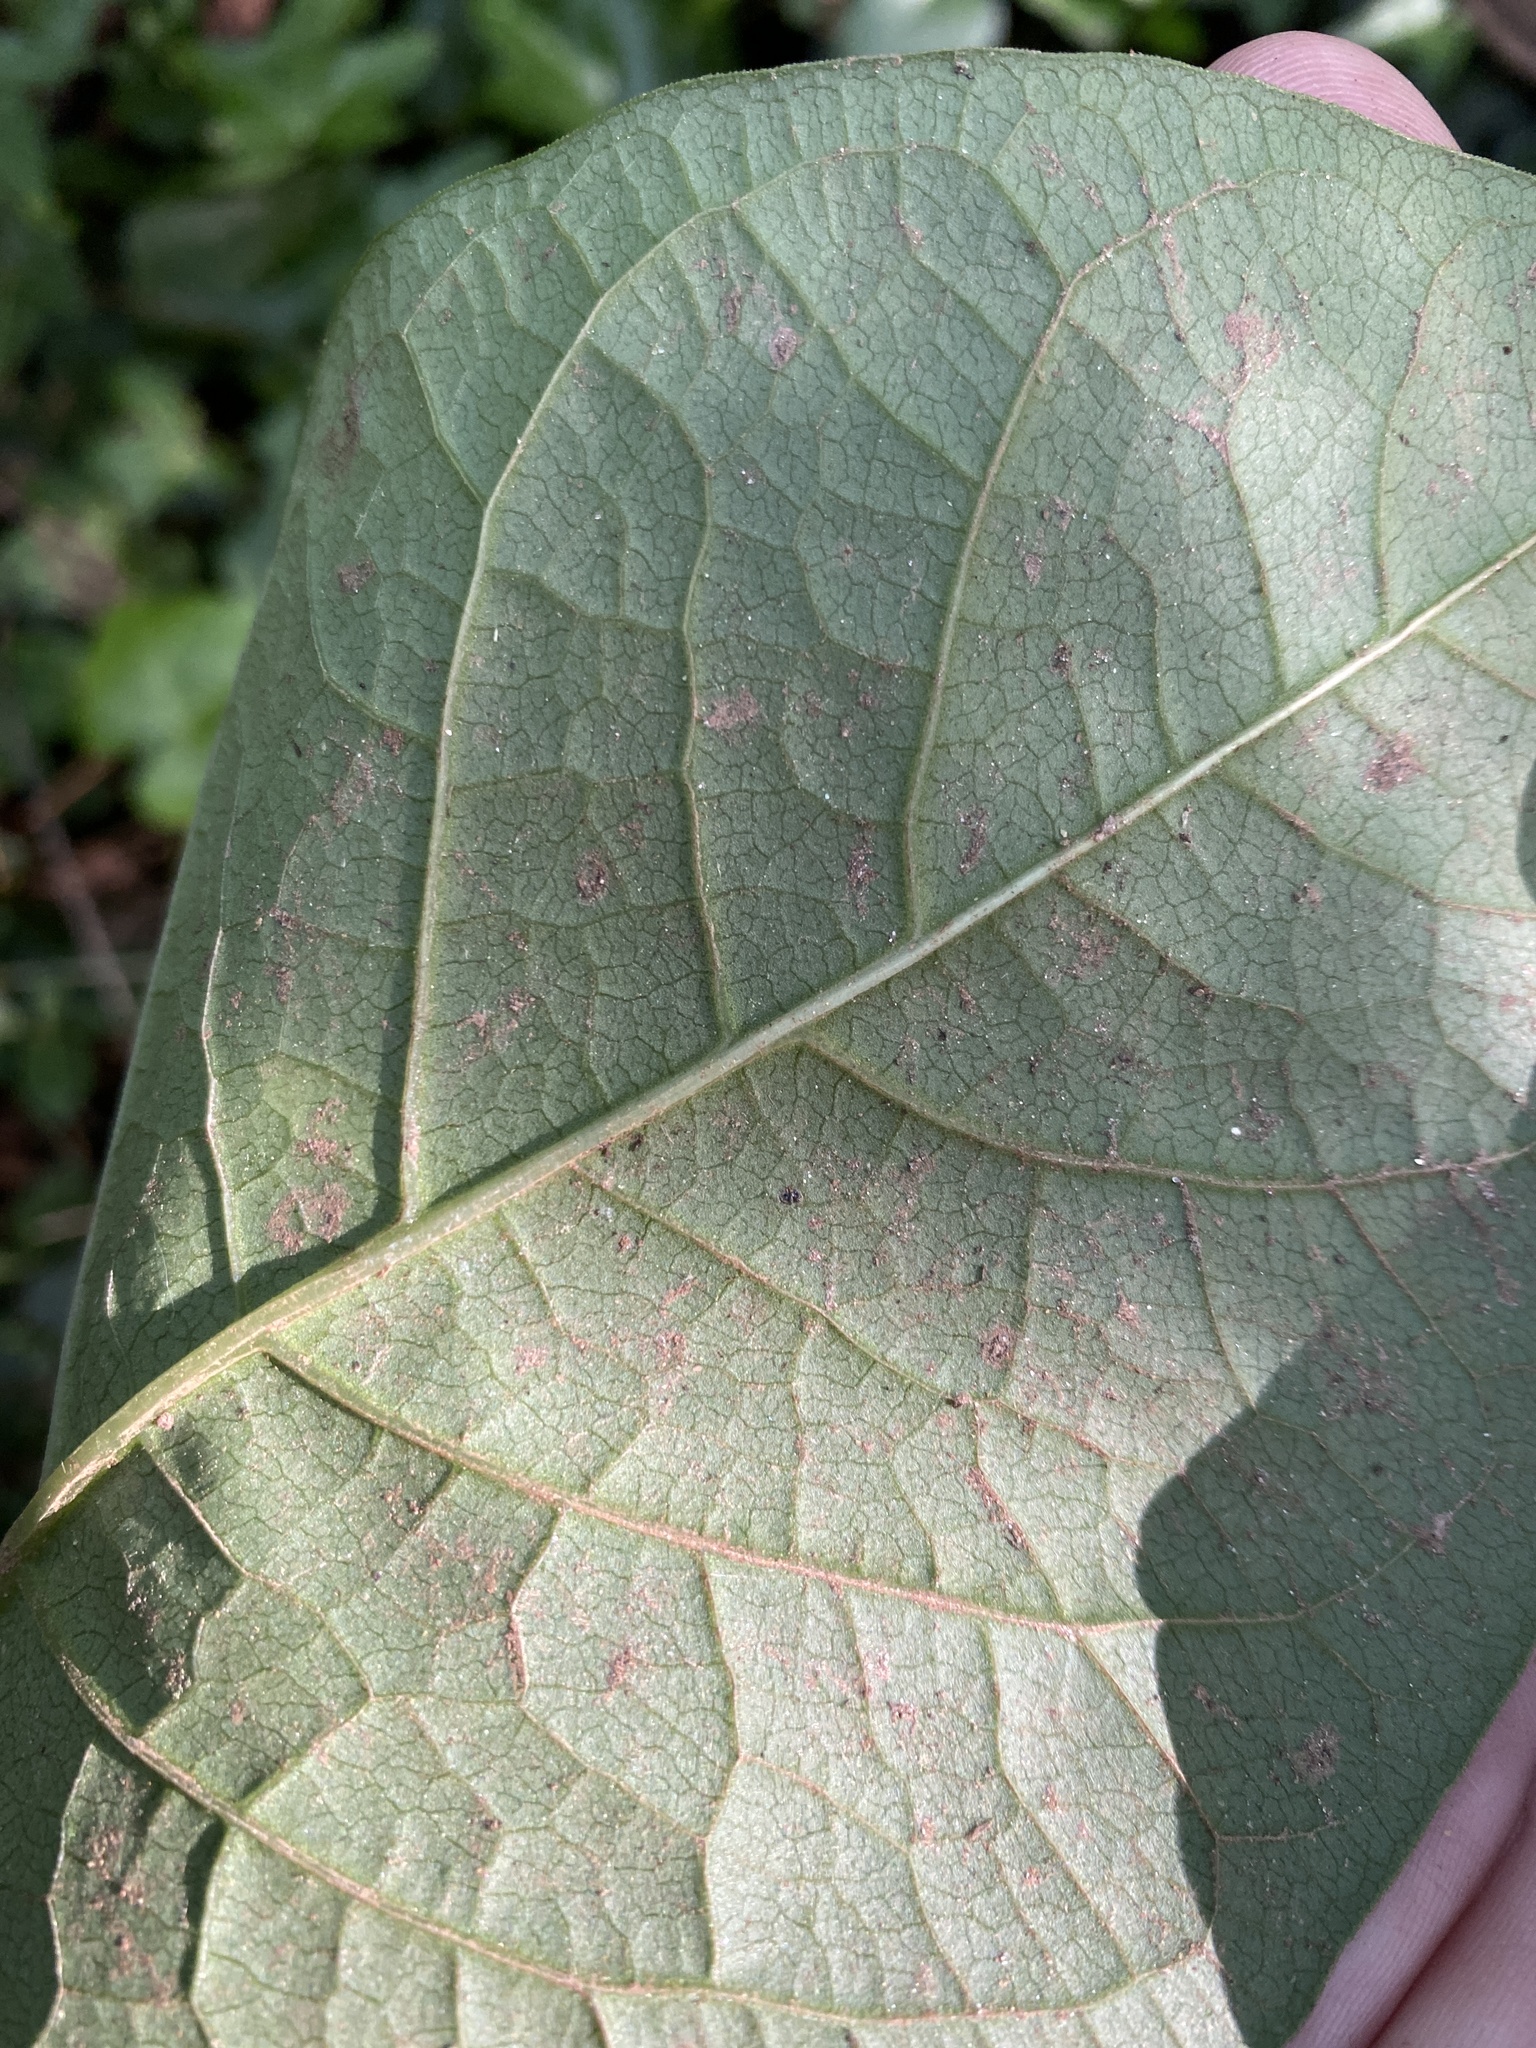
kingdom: Plantae
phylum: Tracheophyta
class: Magnoliopsida
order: Caryophyllales
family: Polygonaceae
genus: Reynoutria
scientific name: Reynoutria japonica
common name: Japanese knotweed
